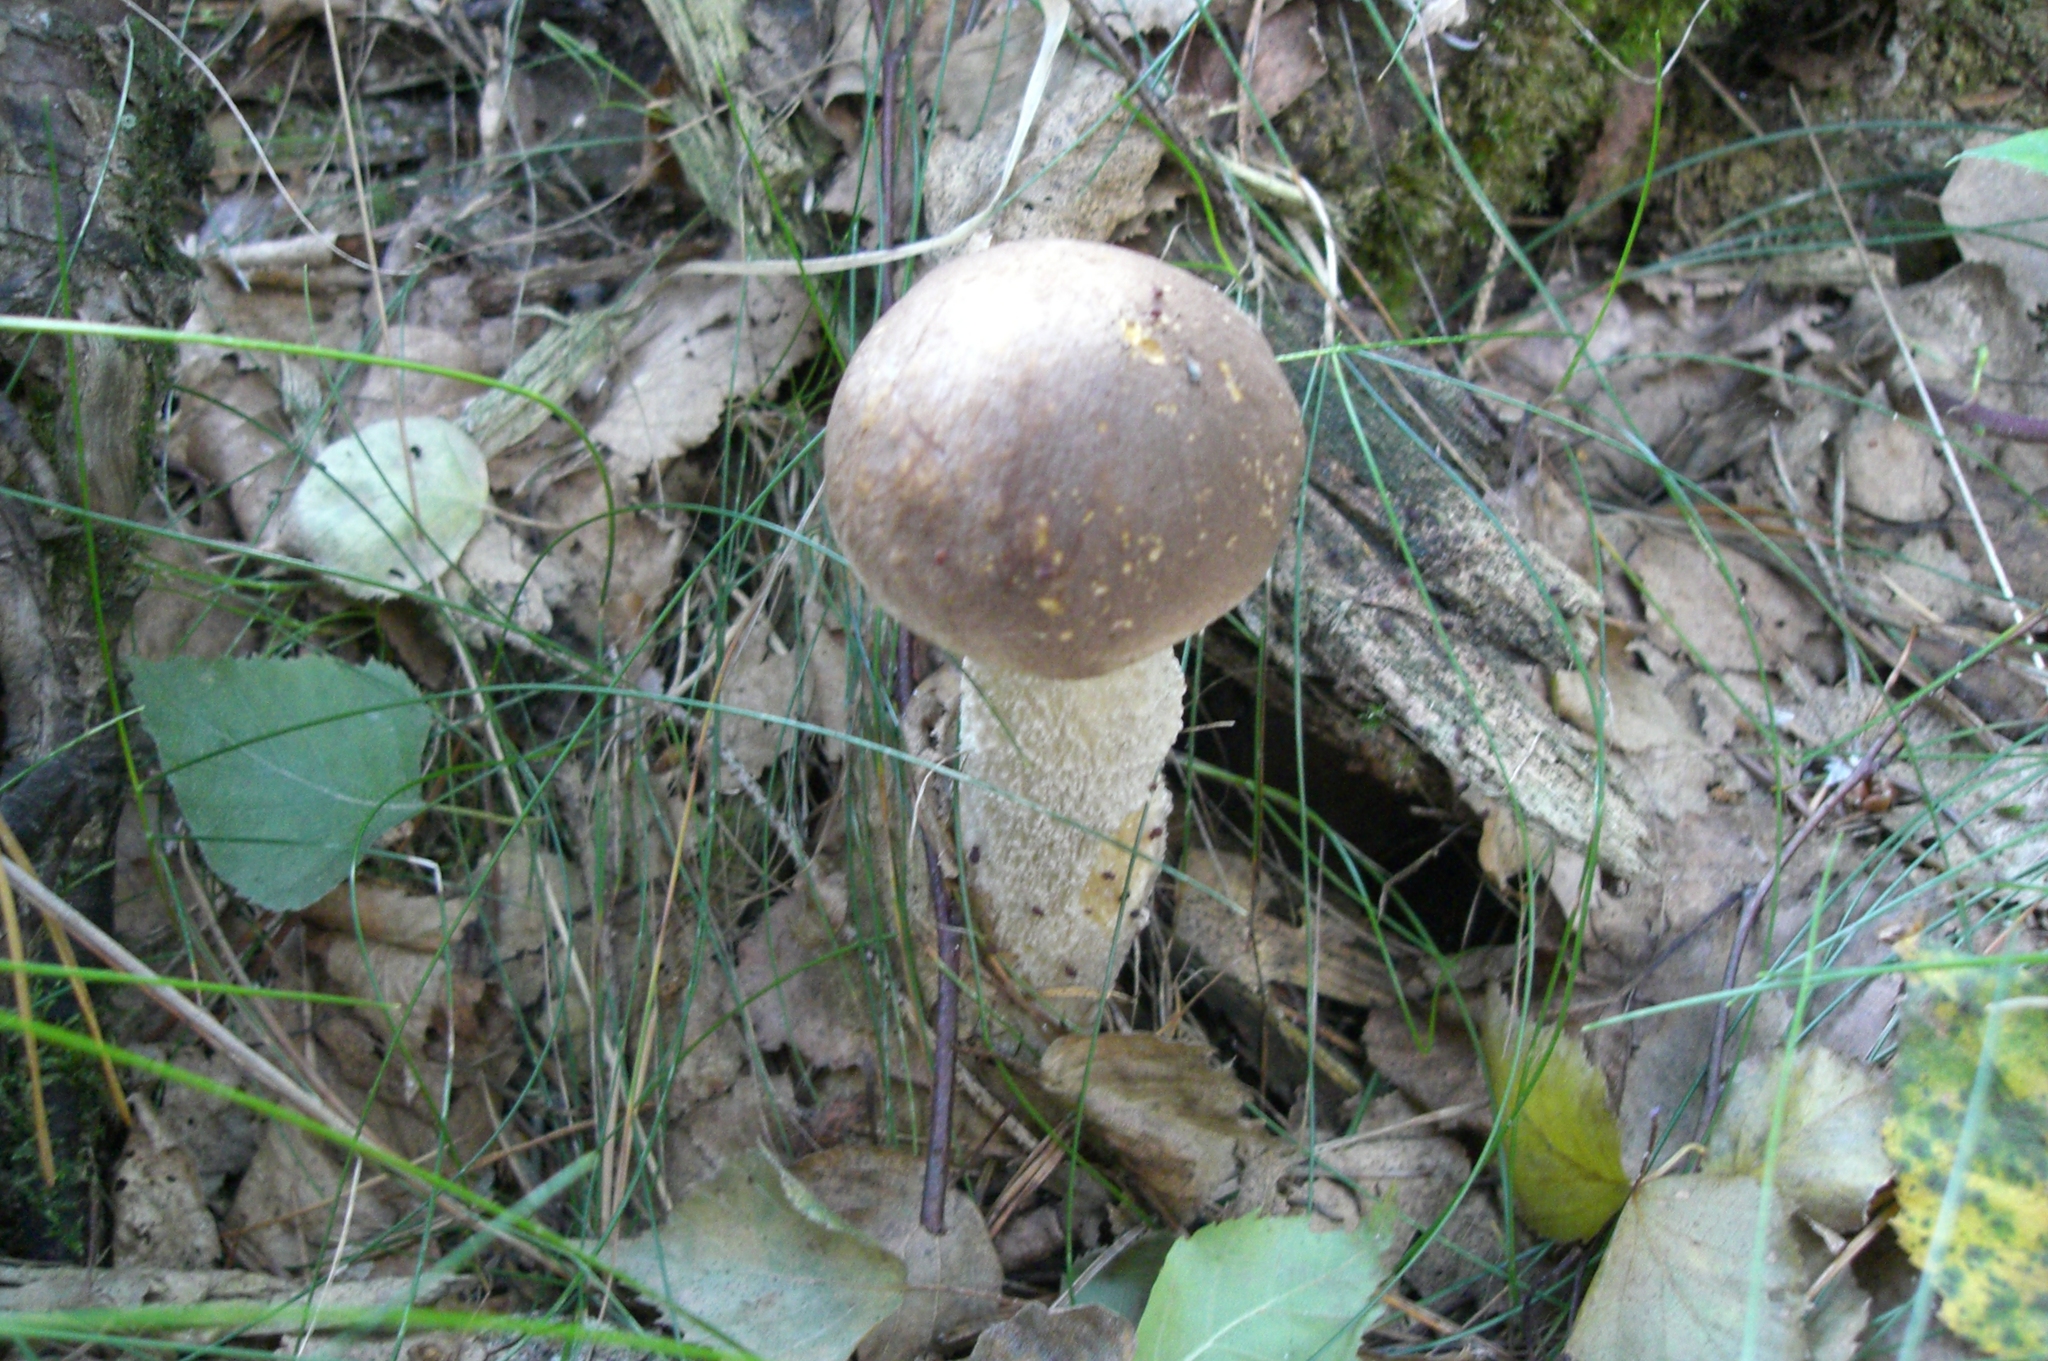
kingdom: Fungi
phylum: Basidiomycota
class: Agaricomycetes
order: Boletales
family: Boletaceae
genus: Leccinum
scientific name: Leccinum scabrum
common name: Blushing bolete
